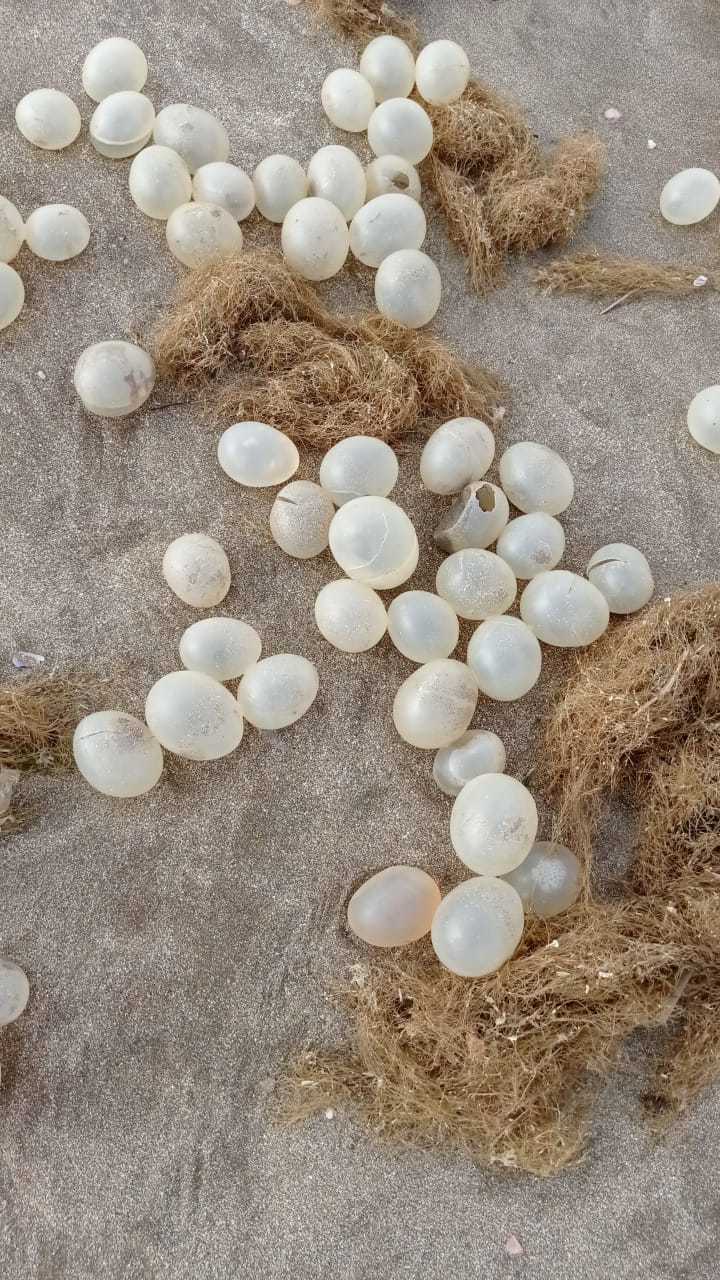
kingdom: Animalia
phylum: Mollusca
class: Gastropoda
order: Neogastropoda
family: Volutidae
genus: Pachycymbiola
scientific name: Pachycymbiola brasiliana
